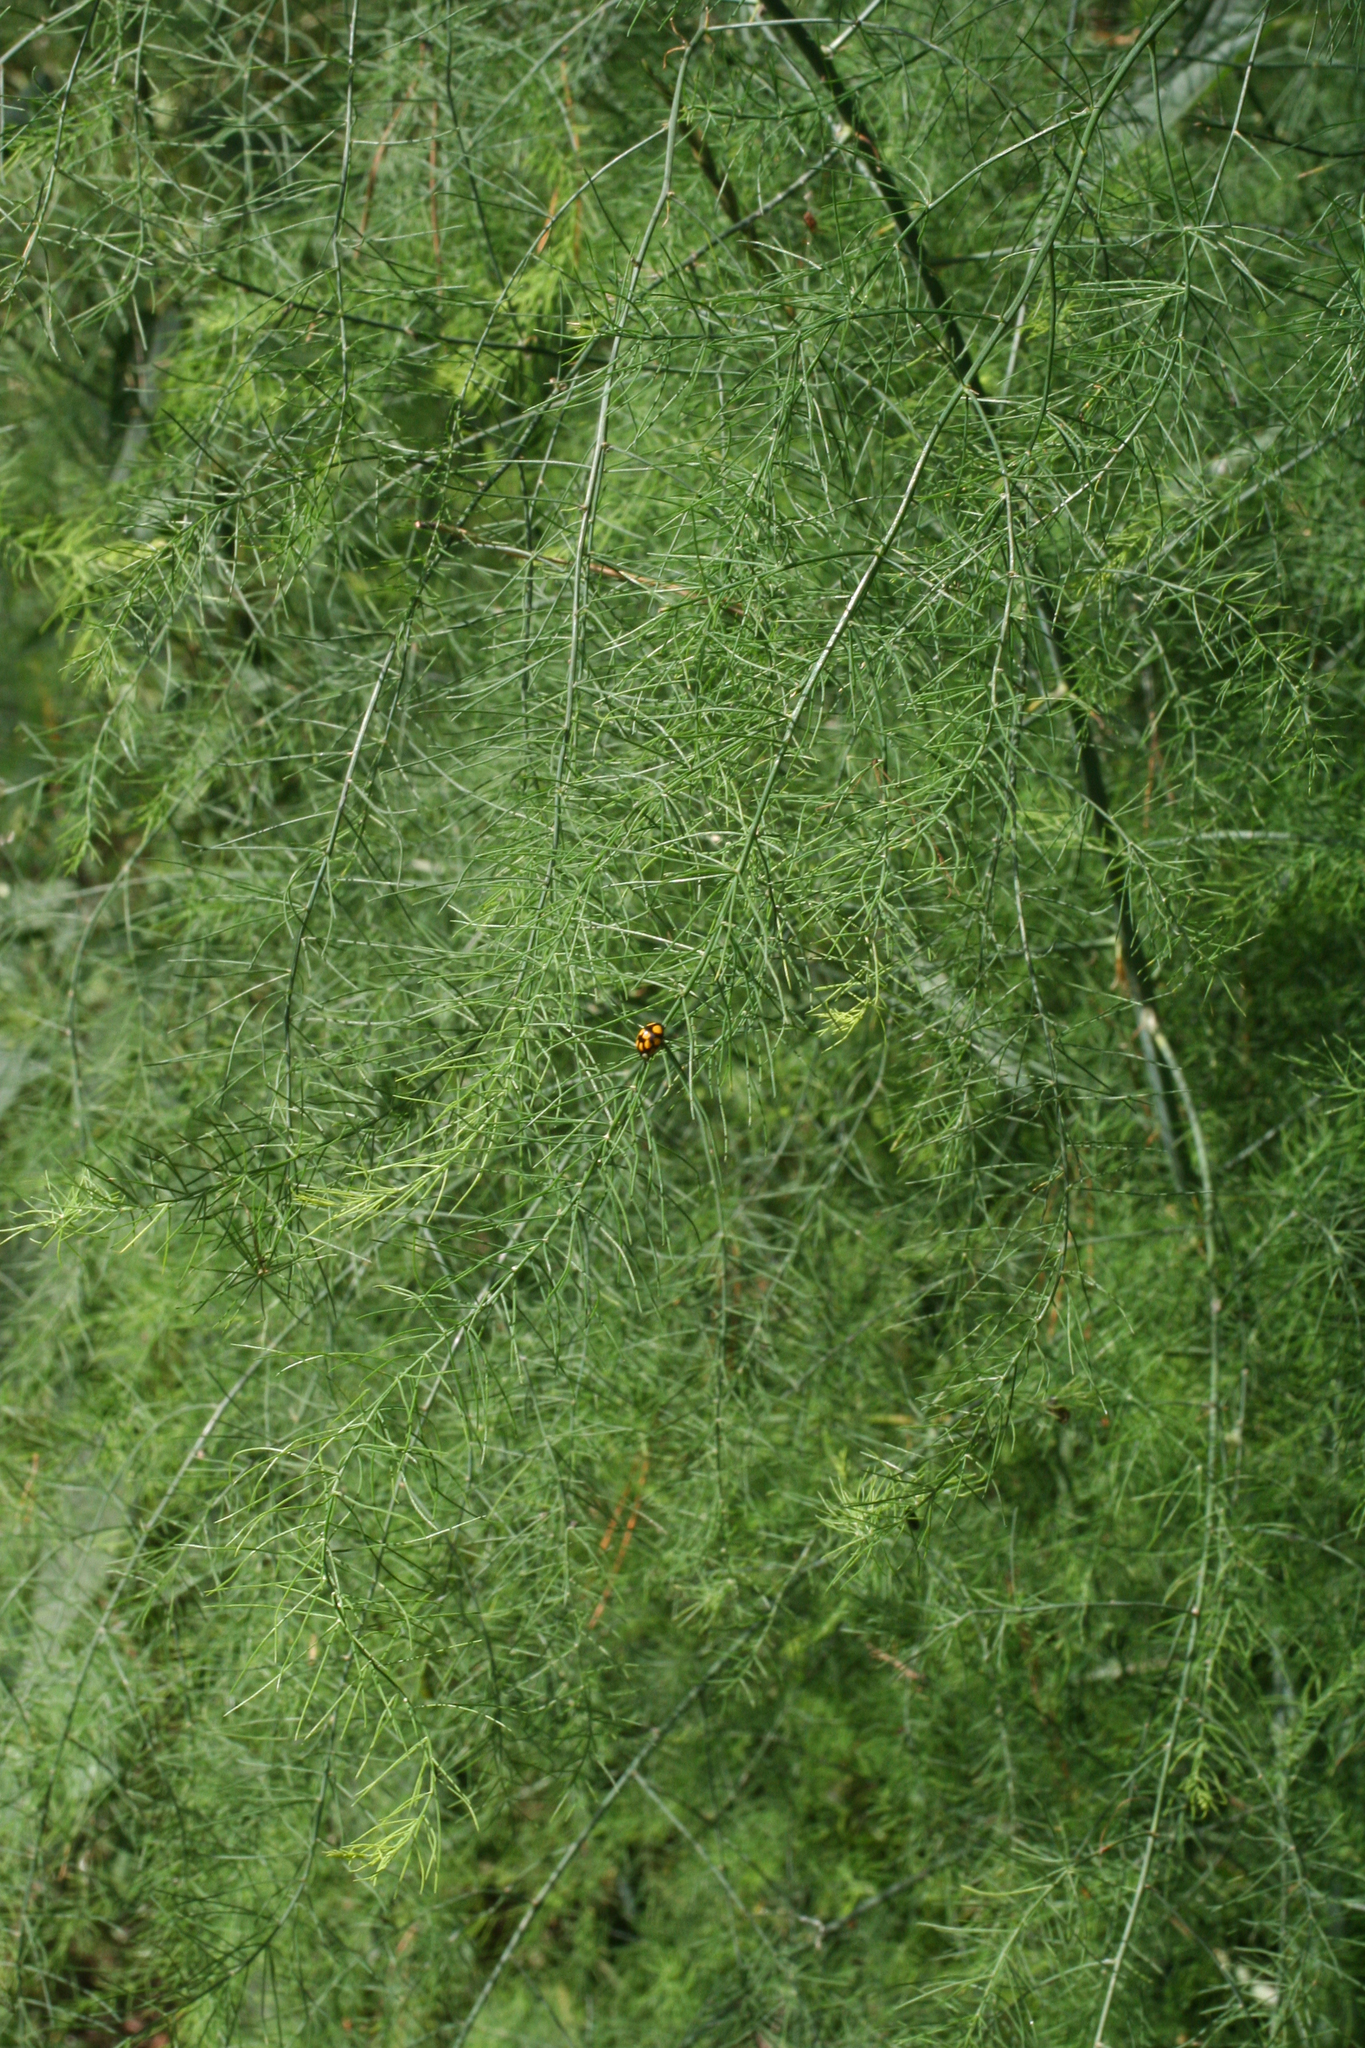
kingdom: Plantae
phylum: Tracheophyta
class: Liliopsida
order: Asparagales
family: Asparagaceae
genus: Asparagus
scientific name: Asparagus officinalis
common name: Garden asparagus
